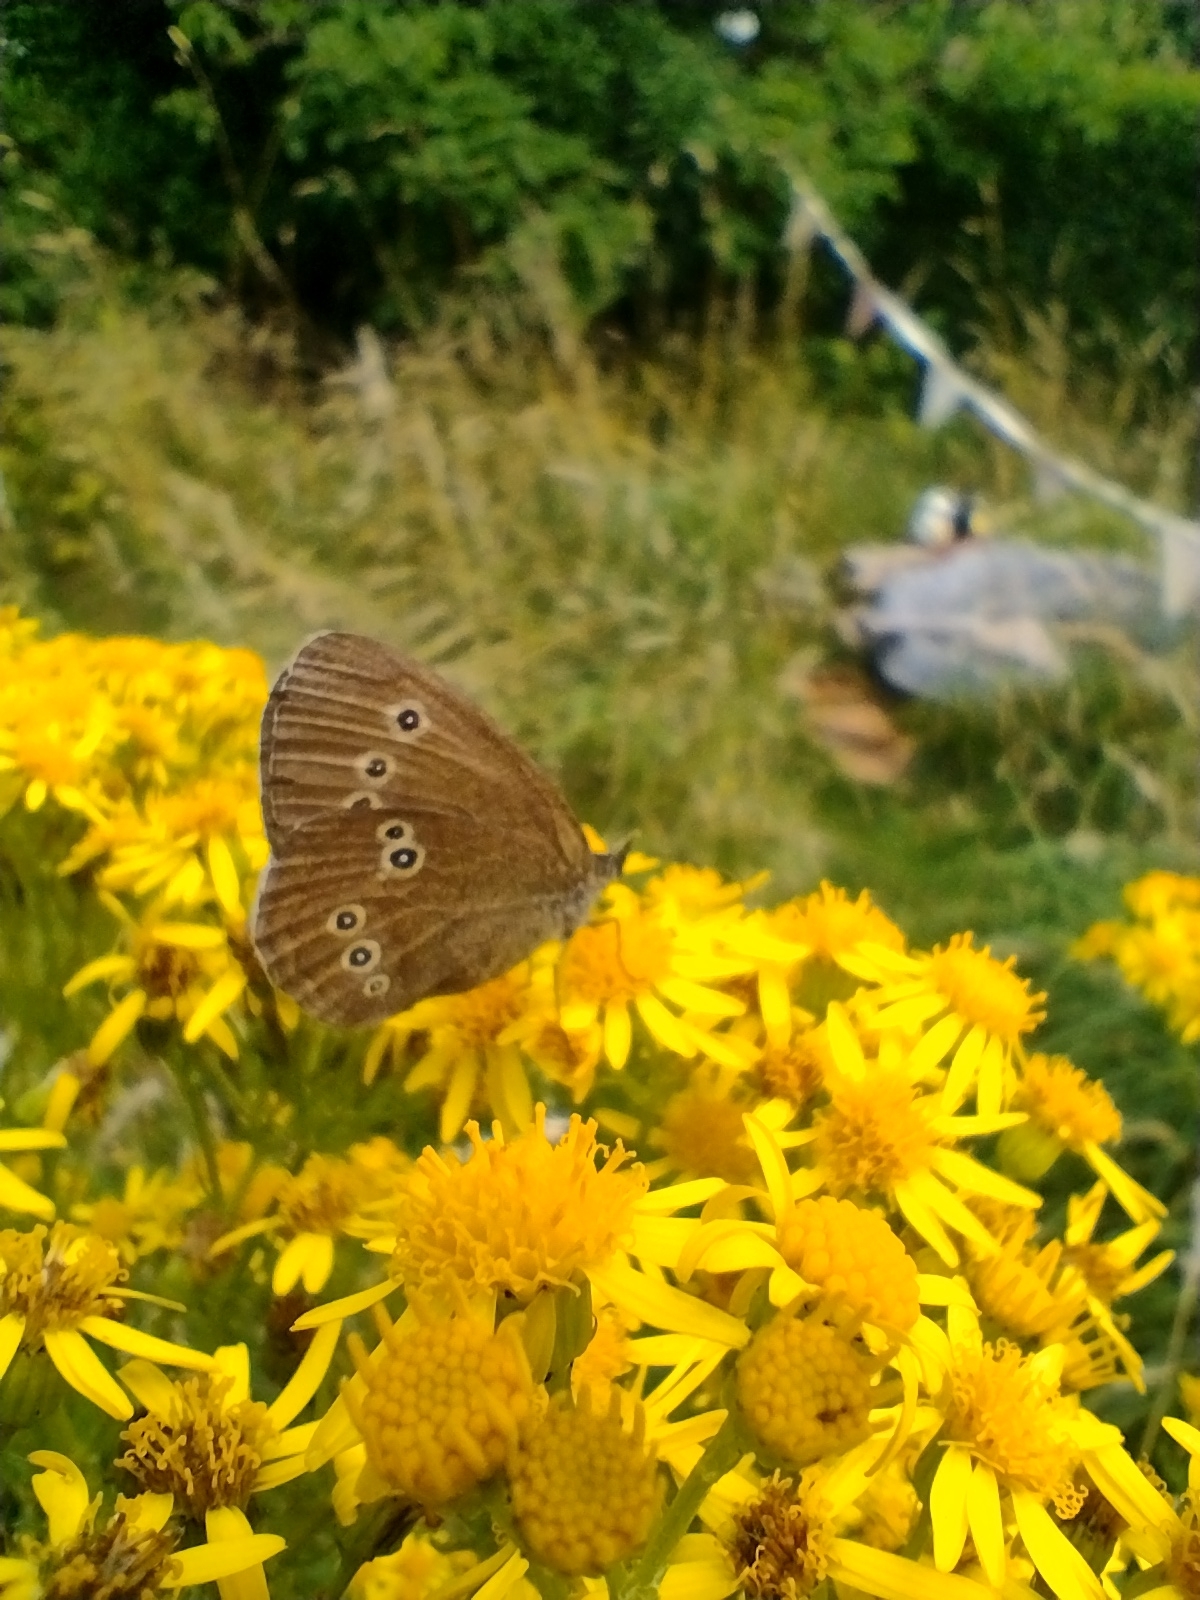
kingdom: Animalia
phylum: Arthropoda
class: Insecta
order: Lepidoptera
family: Nymphalidae
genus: Aphantopus
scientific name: Aphantopus hyperantus
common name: Ringlet
